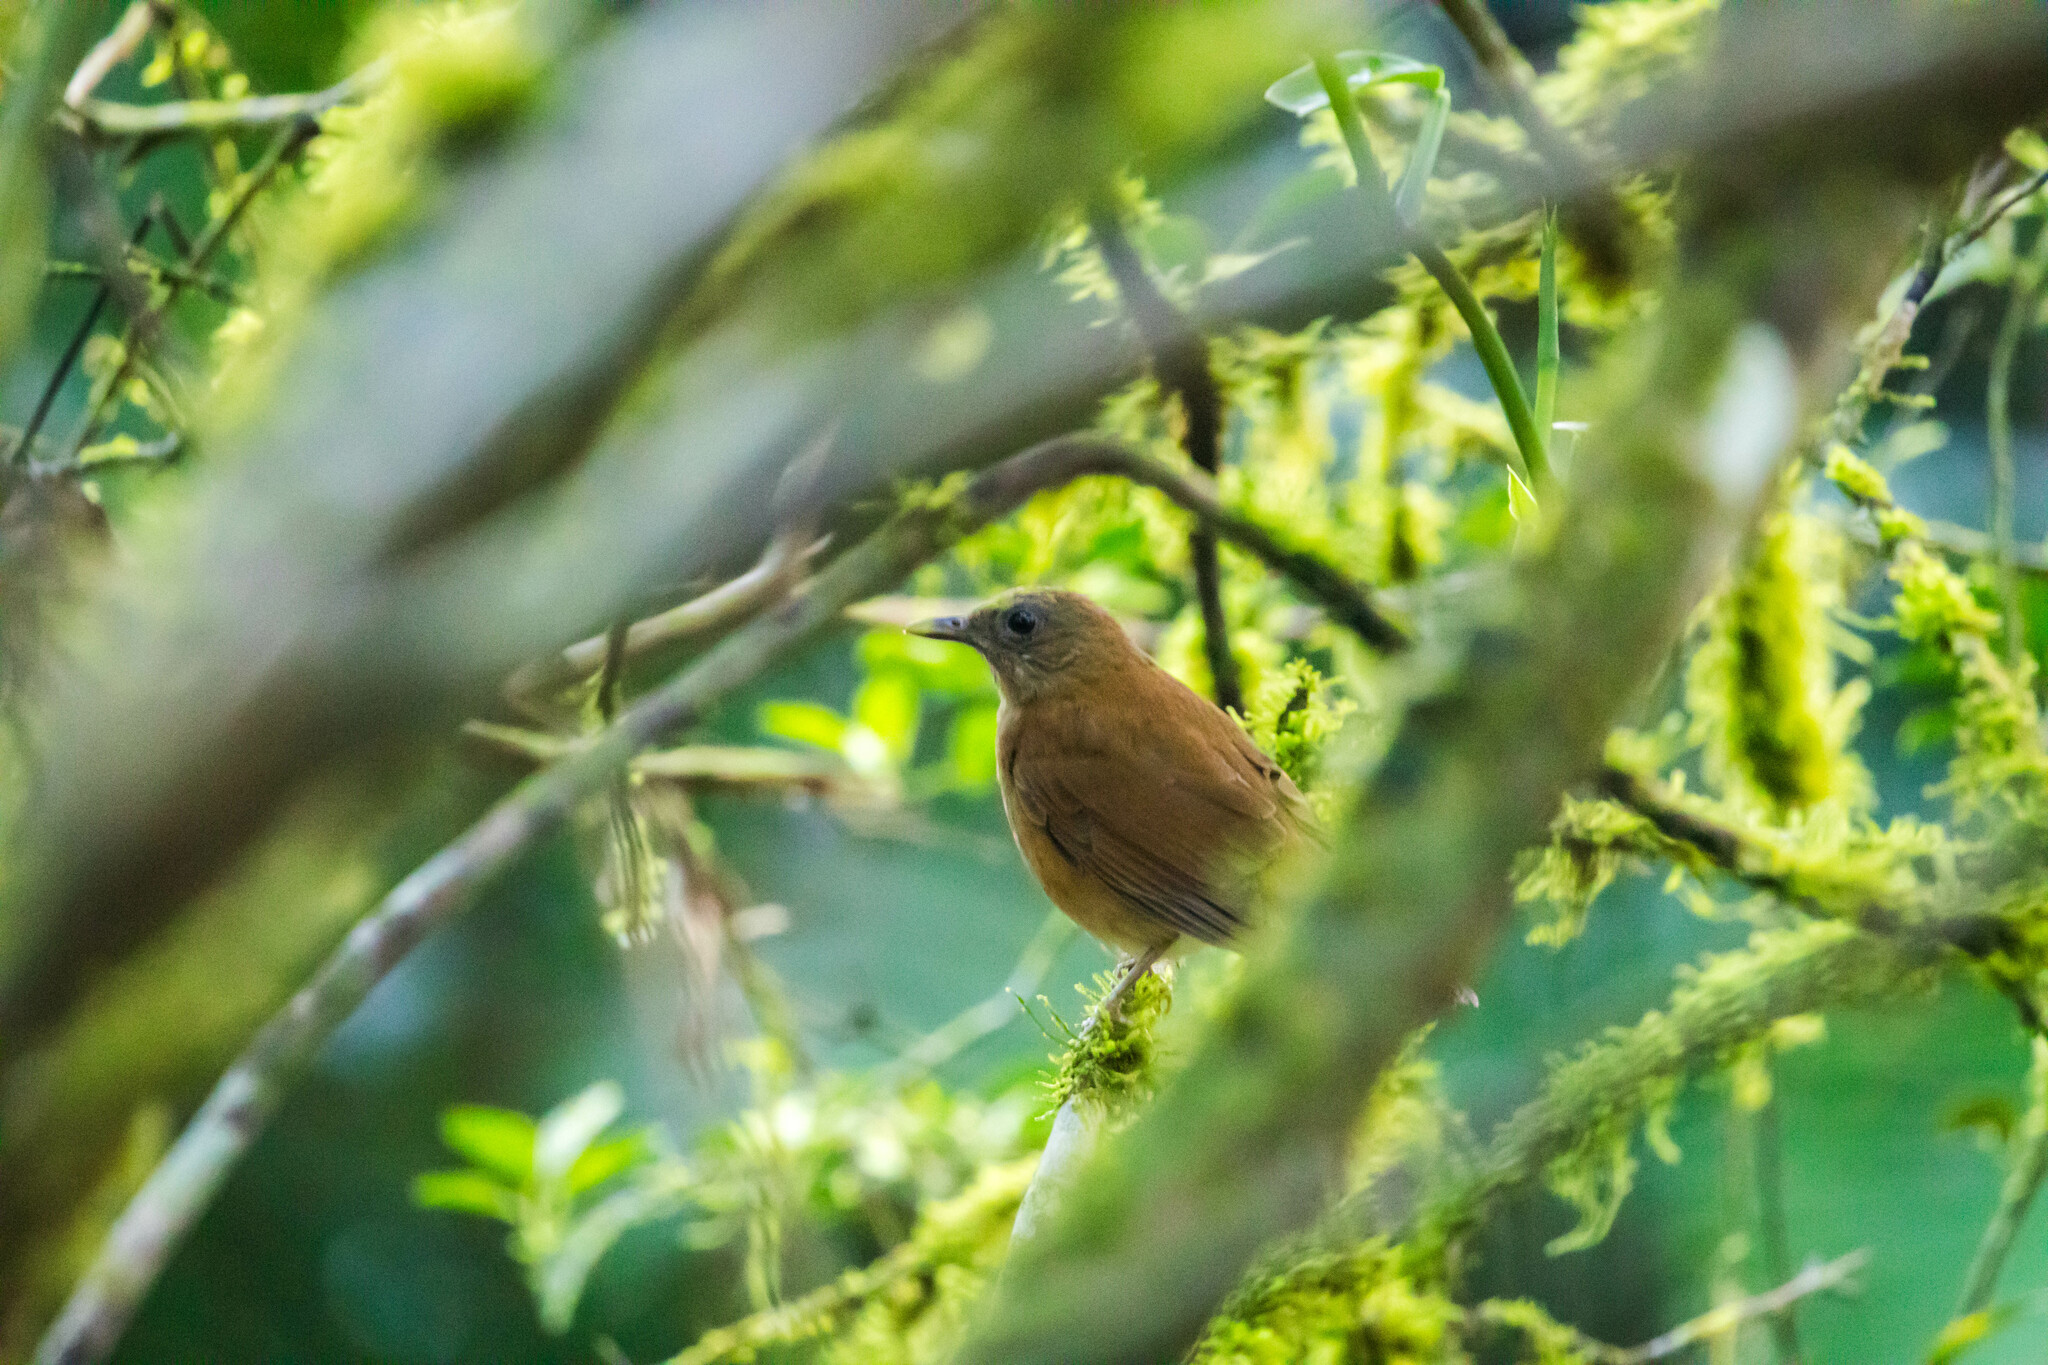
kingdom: Animalia
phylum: Chordata
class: Aves
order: Passeriformes
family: Turdidae
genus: Turdus
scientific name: Turdus fumigatus
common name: Cocoa thrush
